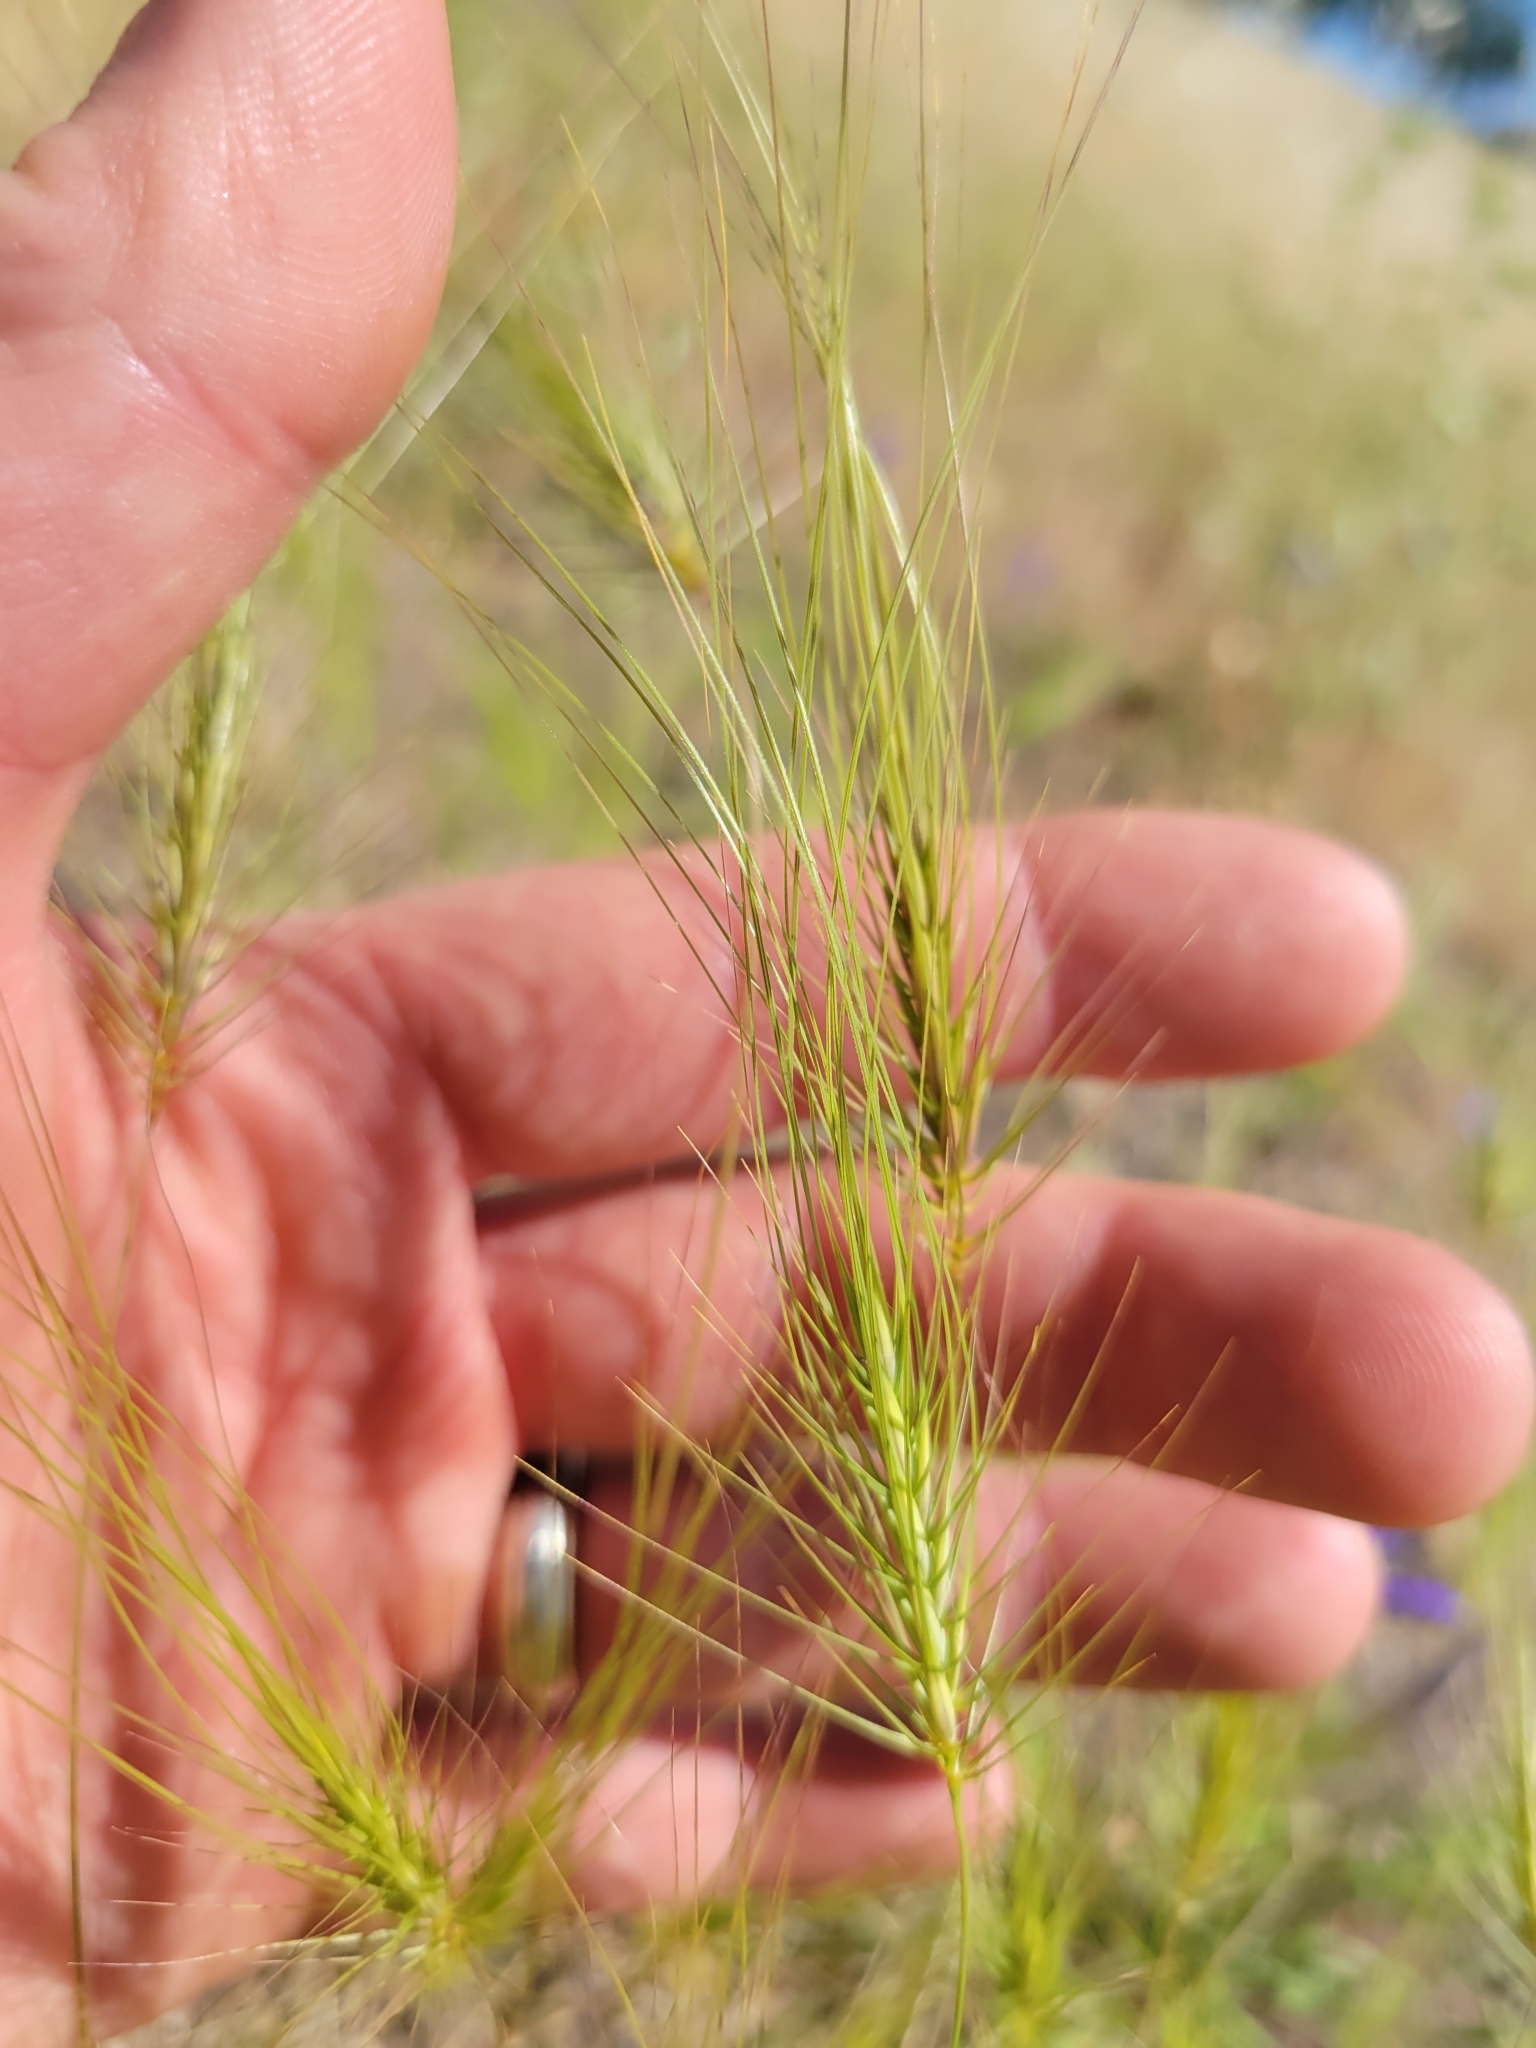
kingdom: Plantae
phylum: Tracheophyta
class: Liliopsida
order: Poales
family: Poaceae
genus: Taeniatherum
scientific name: Taeniatherum caput-medusae
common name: Medusahead
